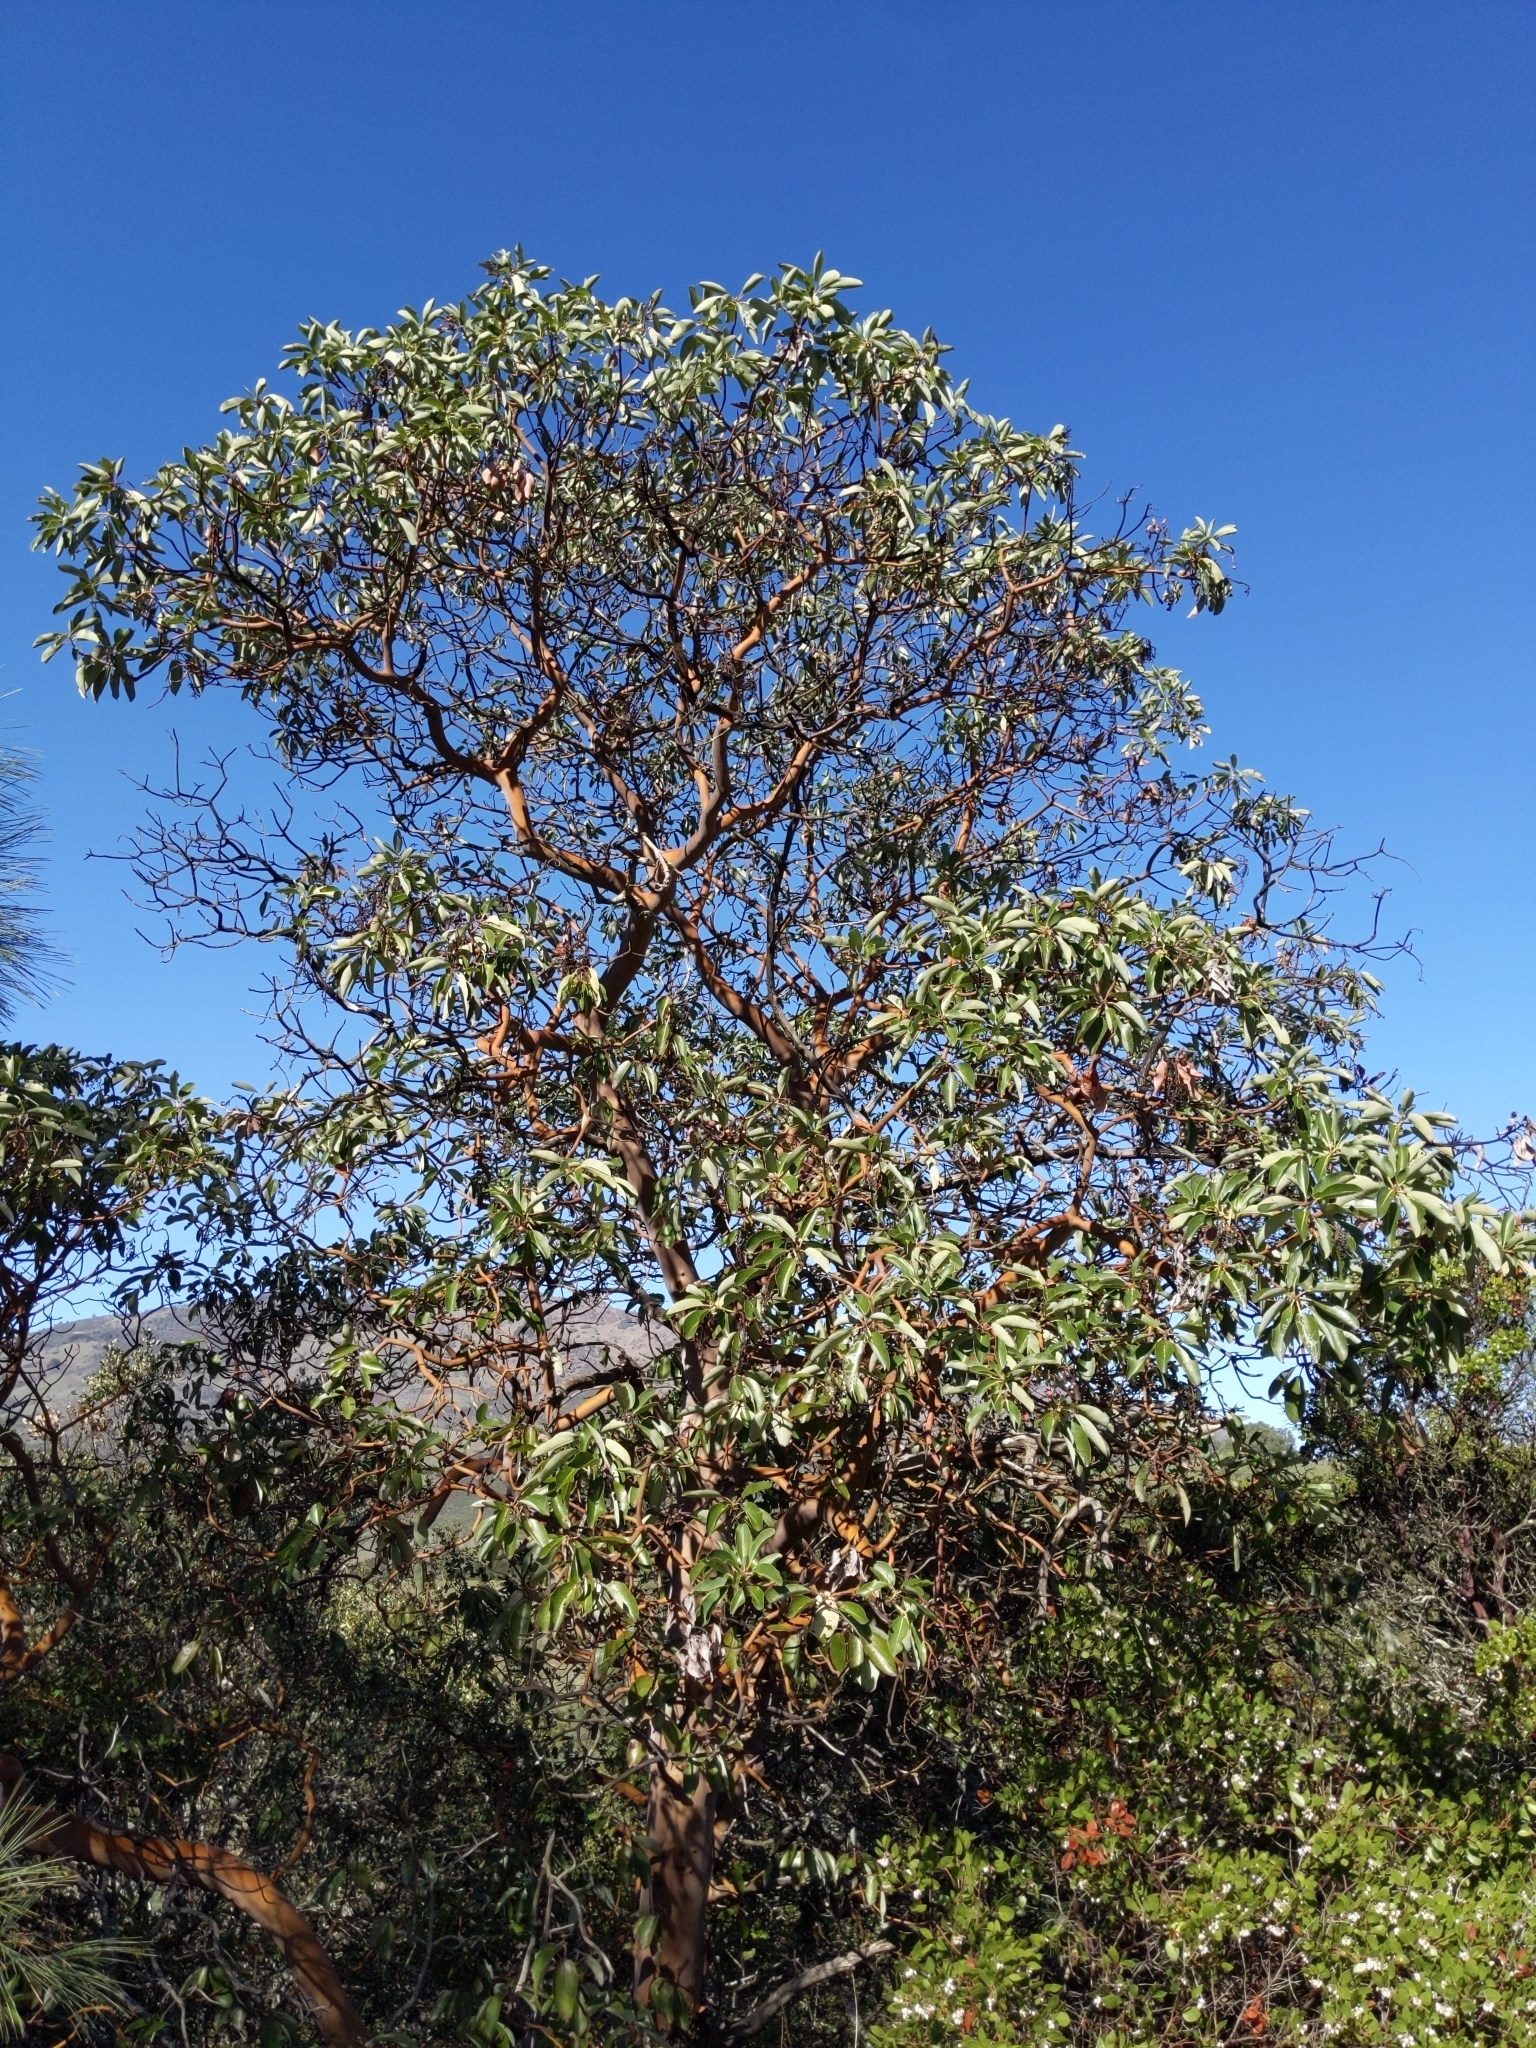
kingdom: Plantae
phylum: Tracheophyta
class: Magnoliopsida
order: Ericales
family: Ericaceae
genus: Arbutus
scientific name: Arbutus menziesii
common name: Pacific madrone
